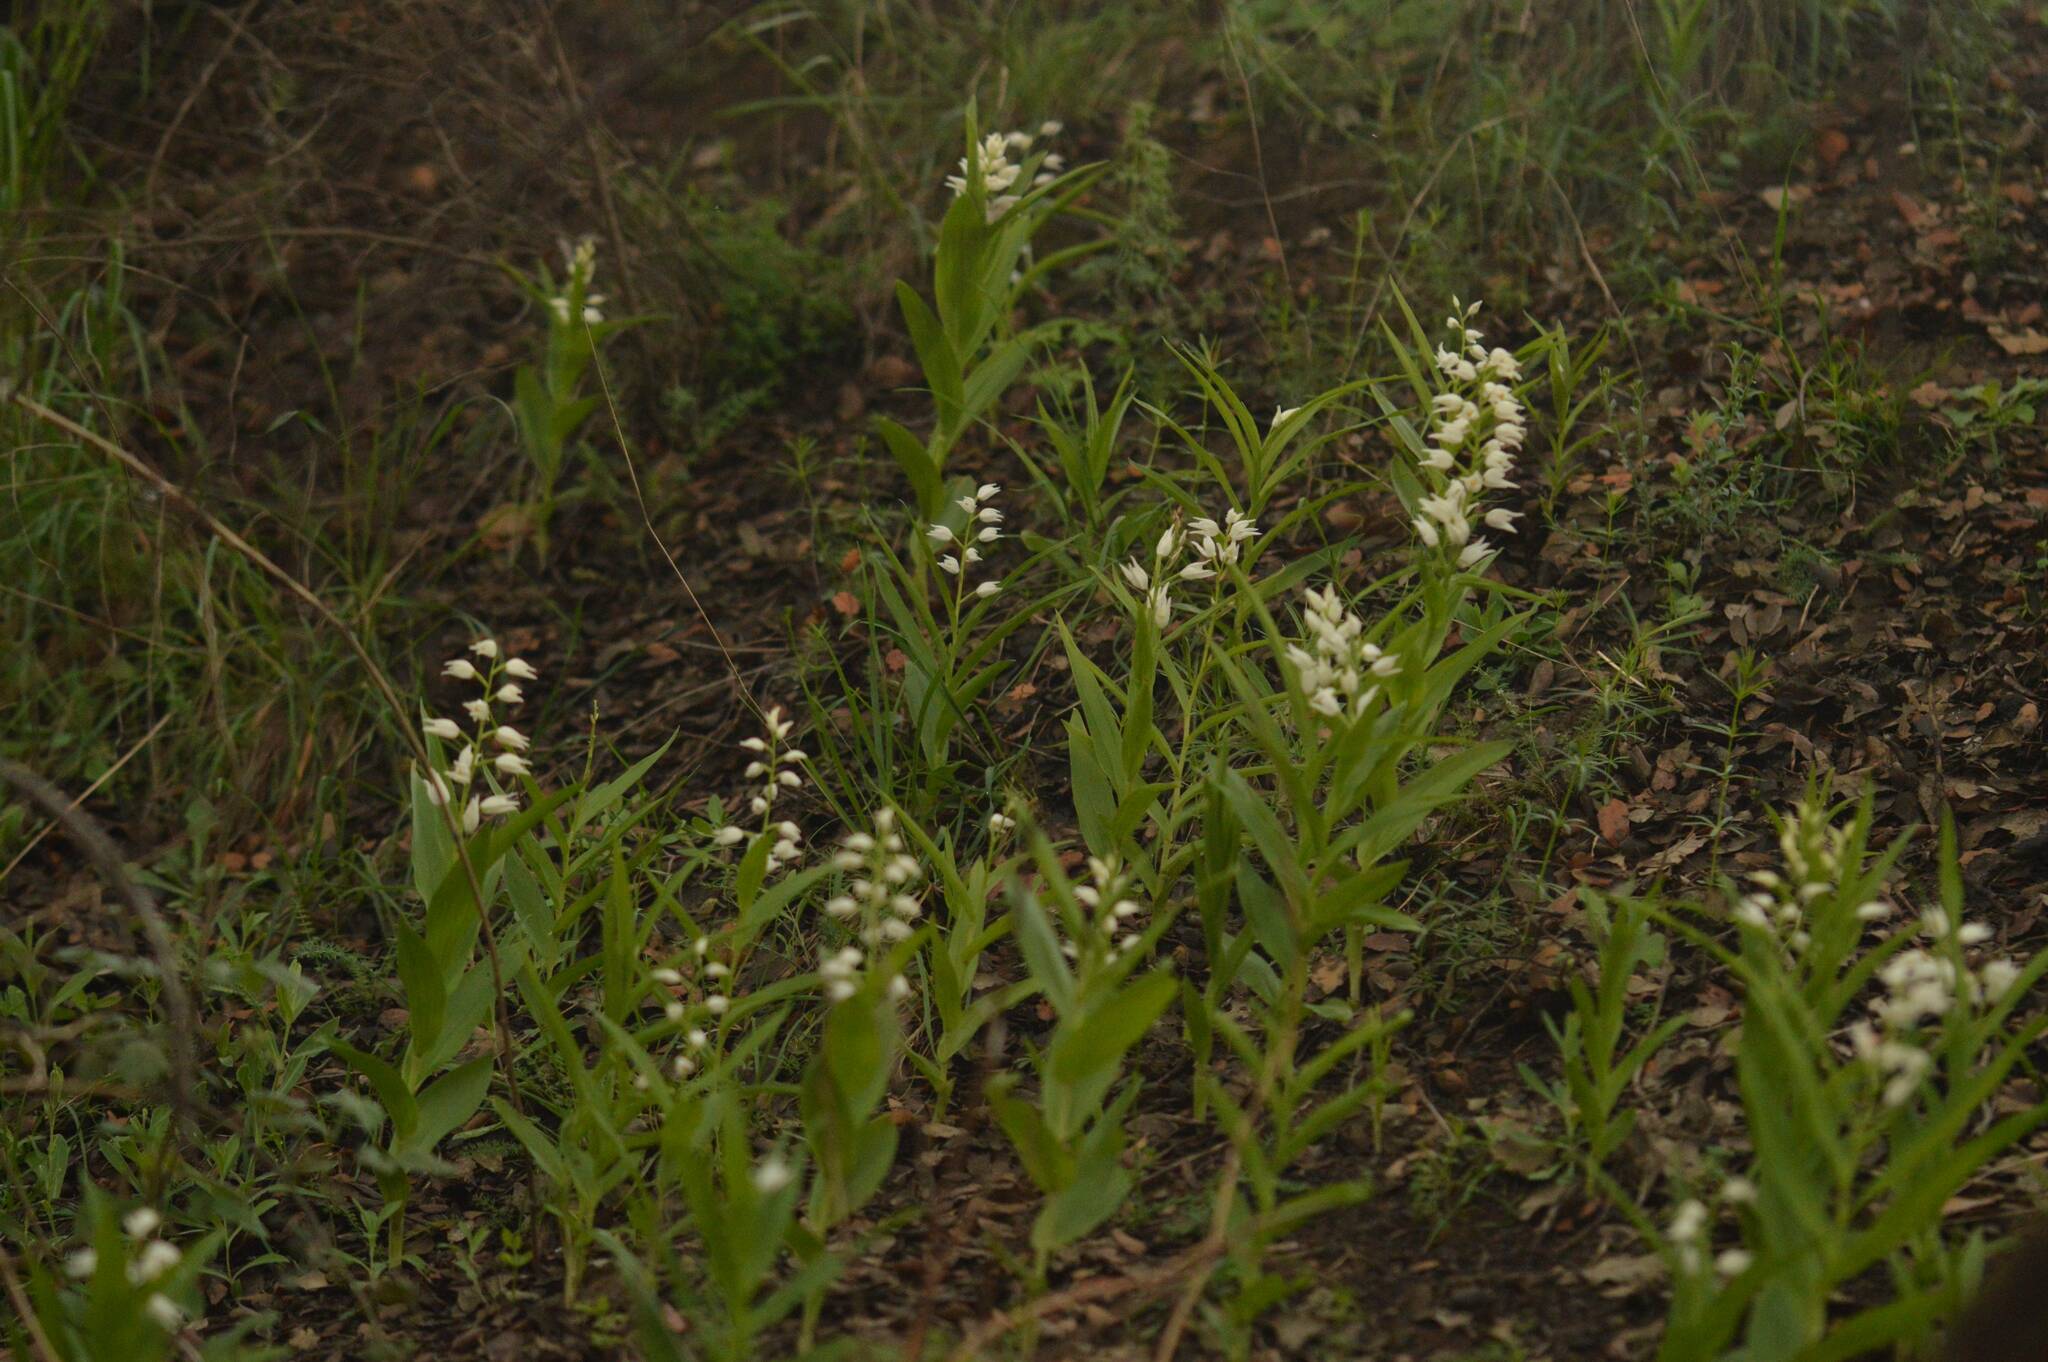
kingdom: Plantae
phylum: Tracheophyta
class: Liliopsida
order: Asparagales
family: Orchidaceae
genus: Cephalanthera
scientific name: Cephalanthera longifolia
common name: Narrow-leaved helleborine
